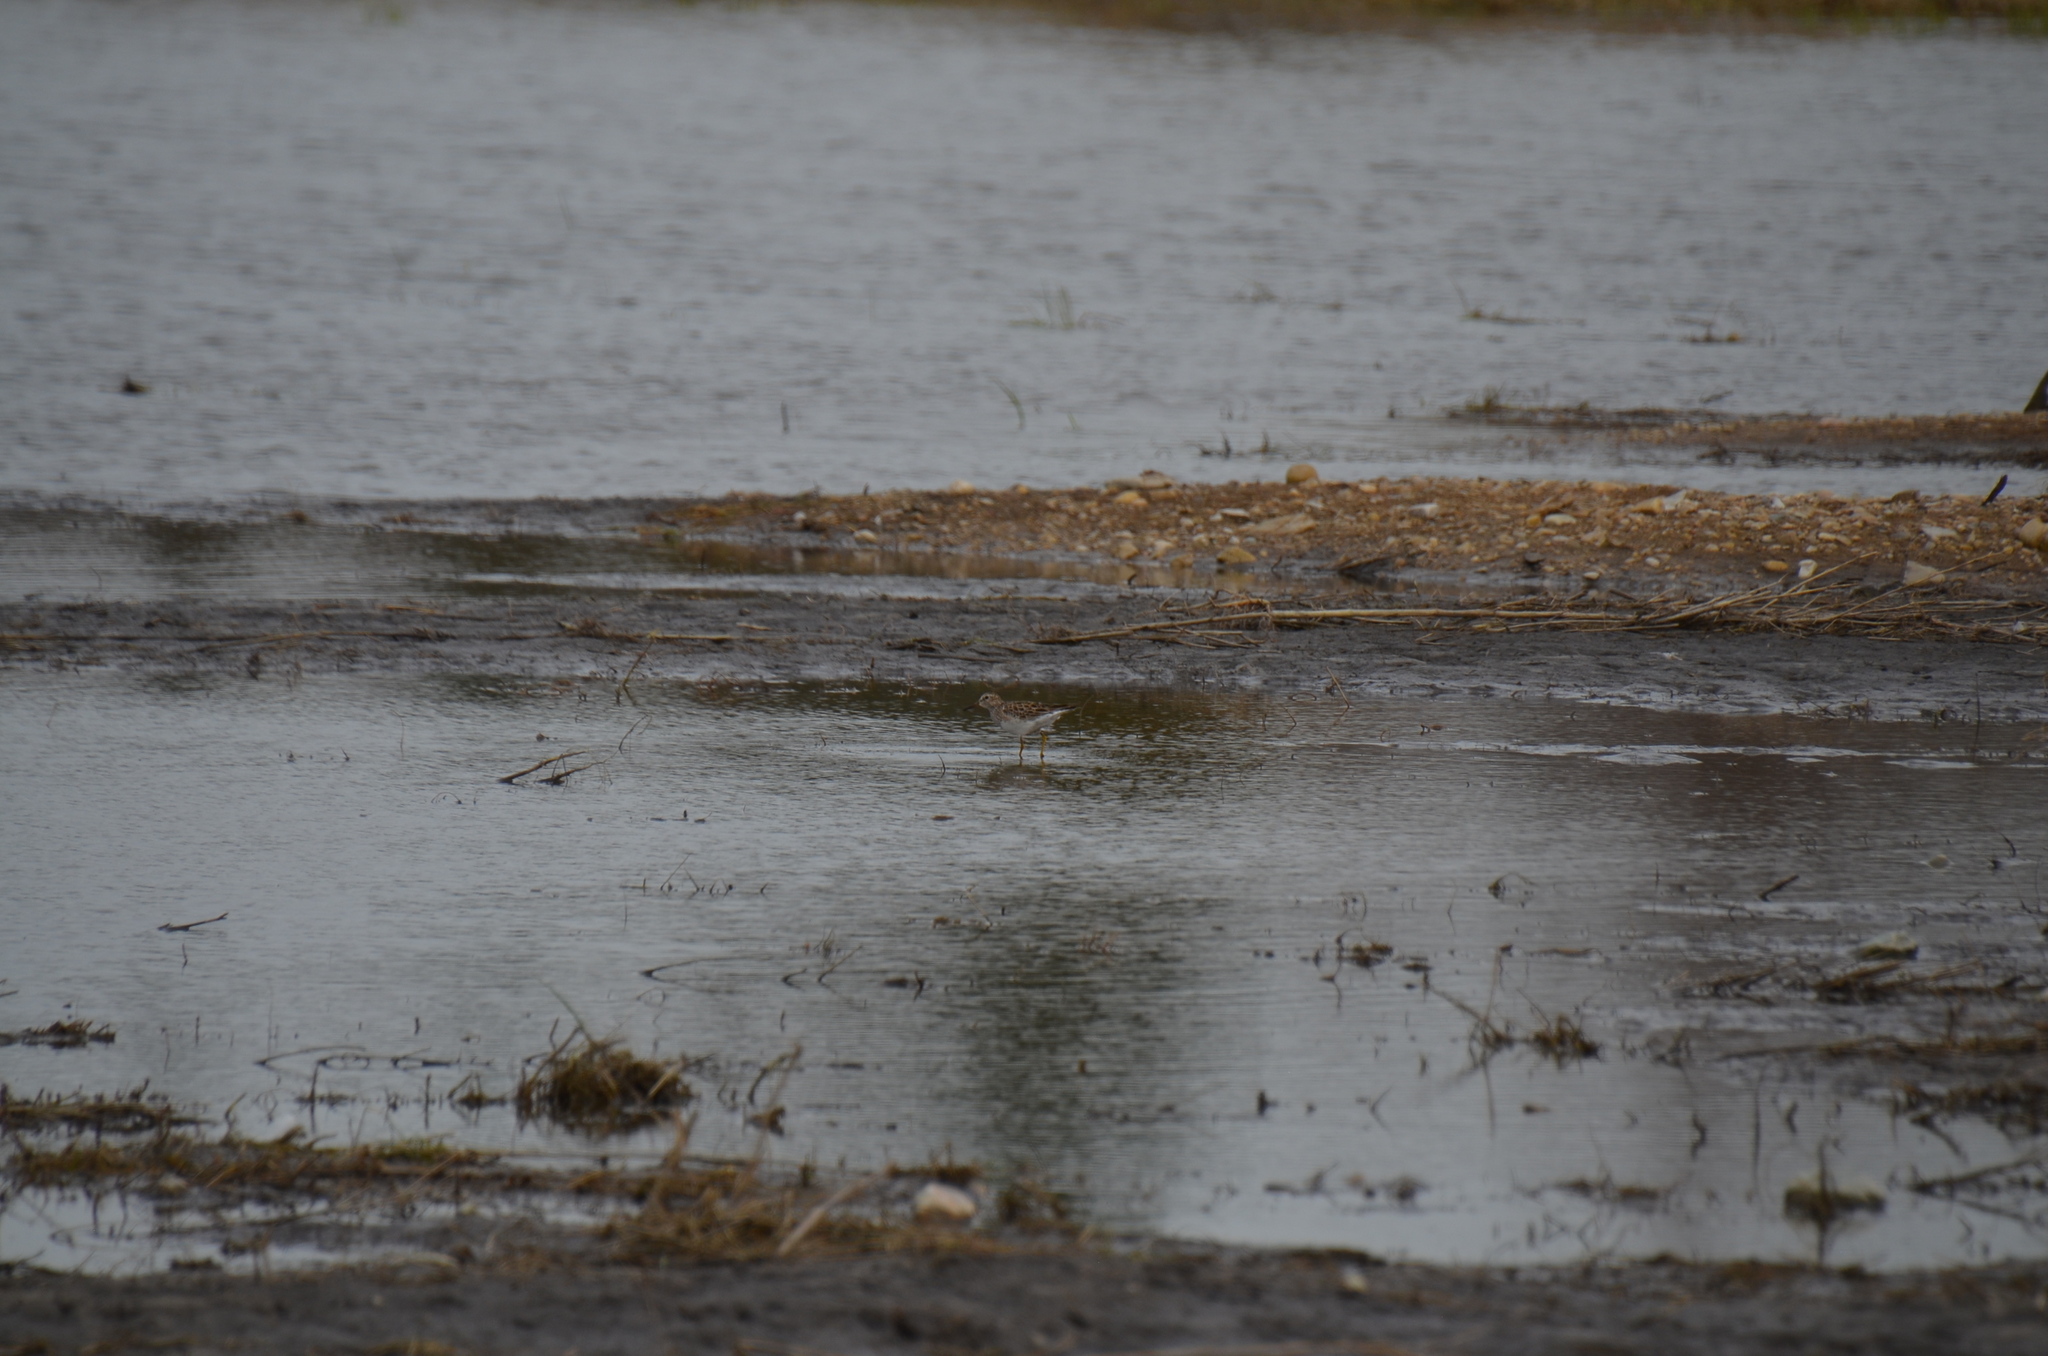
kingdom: Animalia
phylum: Chordata
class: Aves
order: Charadriiformes
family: Scolopacidae
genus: Calidris
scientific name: Calidris melanotos
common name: Pectoral sandpiper
